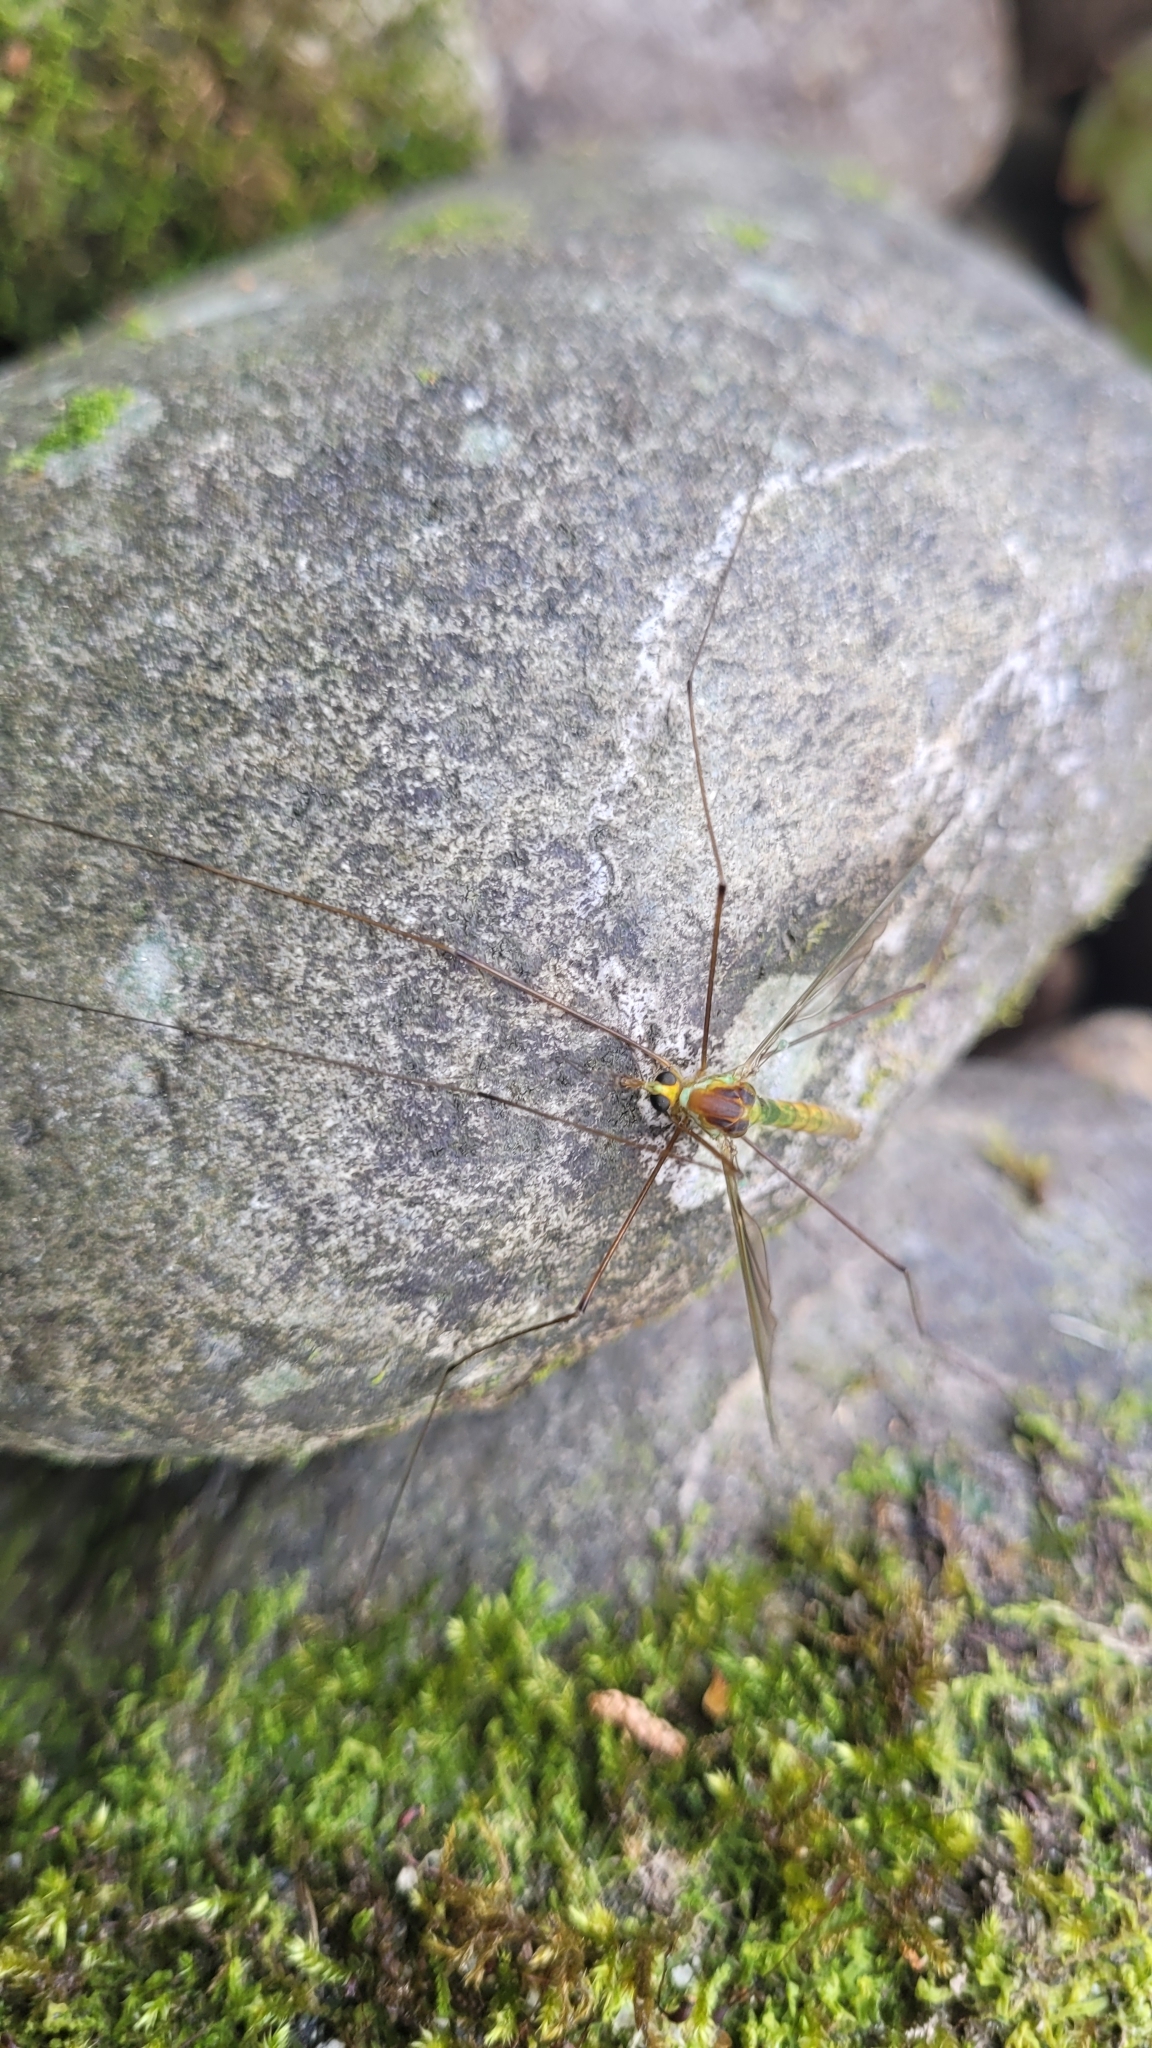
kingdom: Animalia
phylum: Arthropoda
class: Insecta
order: Diptera
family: Tipulidae
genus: Leptotarsus
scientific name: Leptotarsus albistigma
